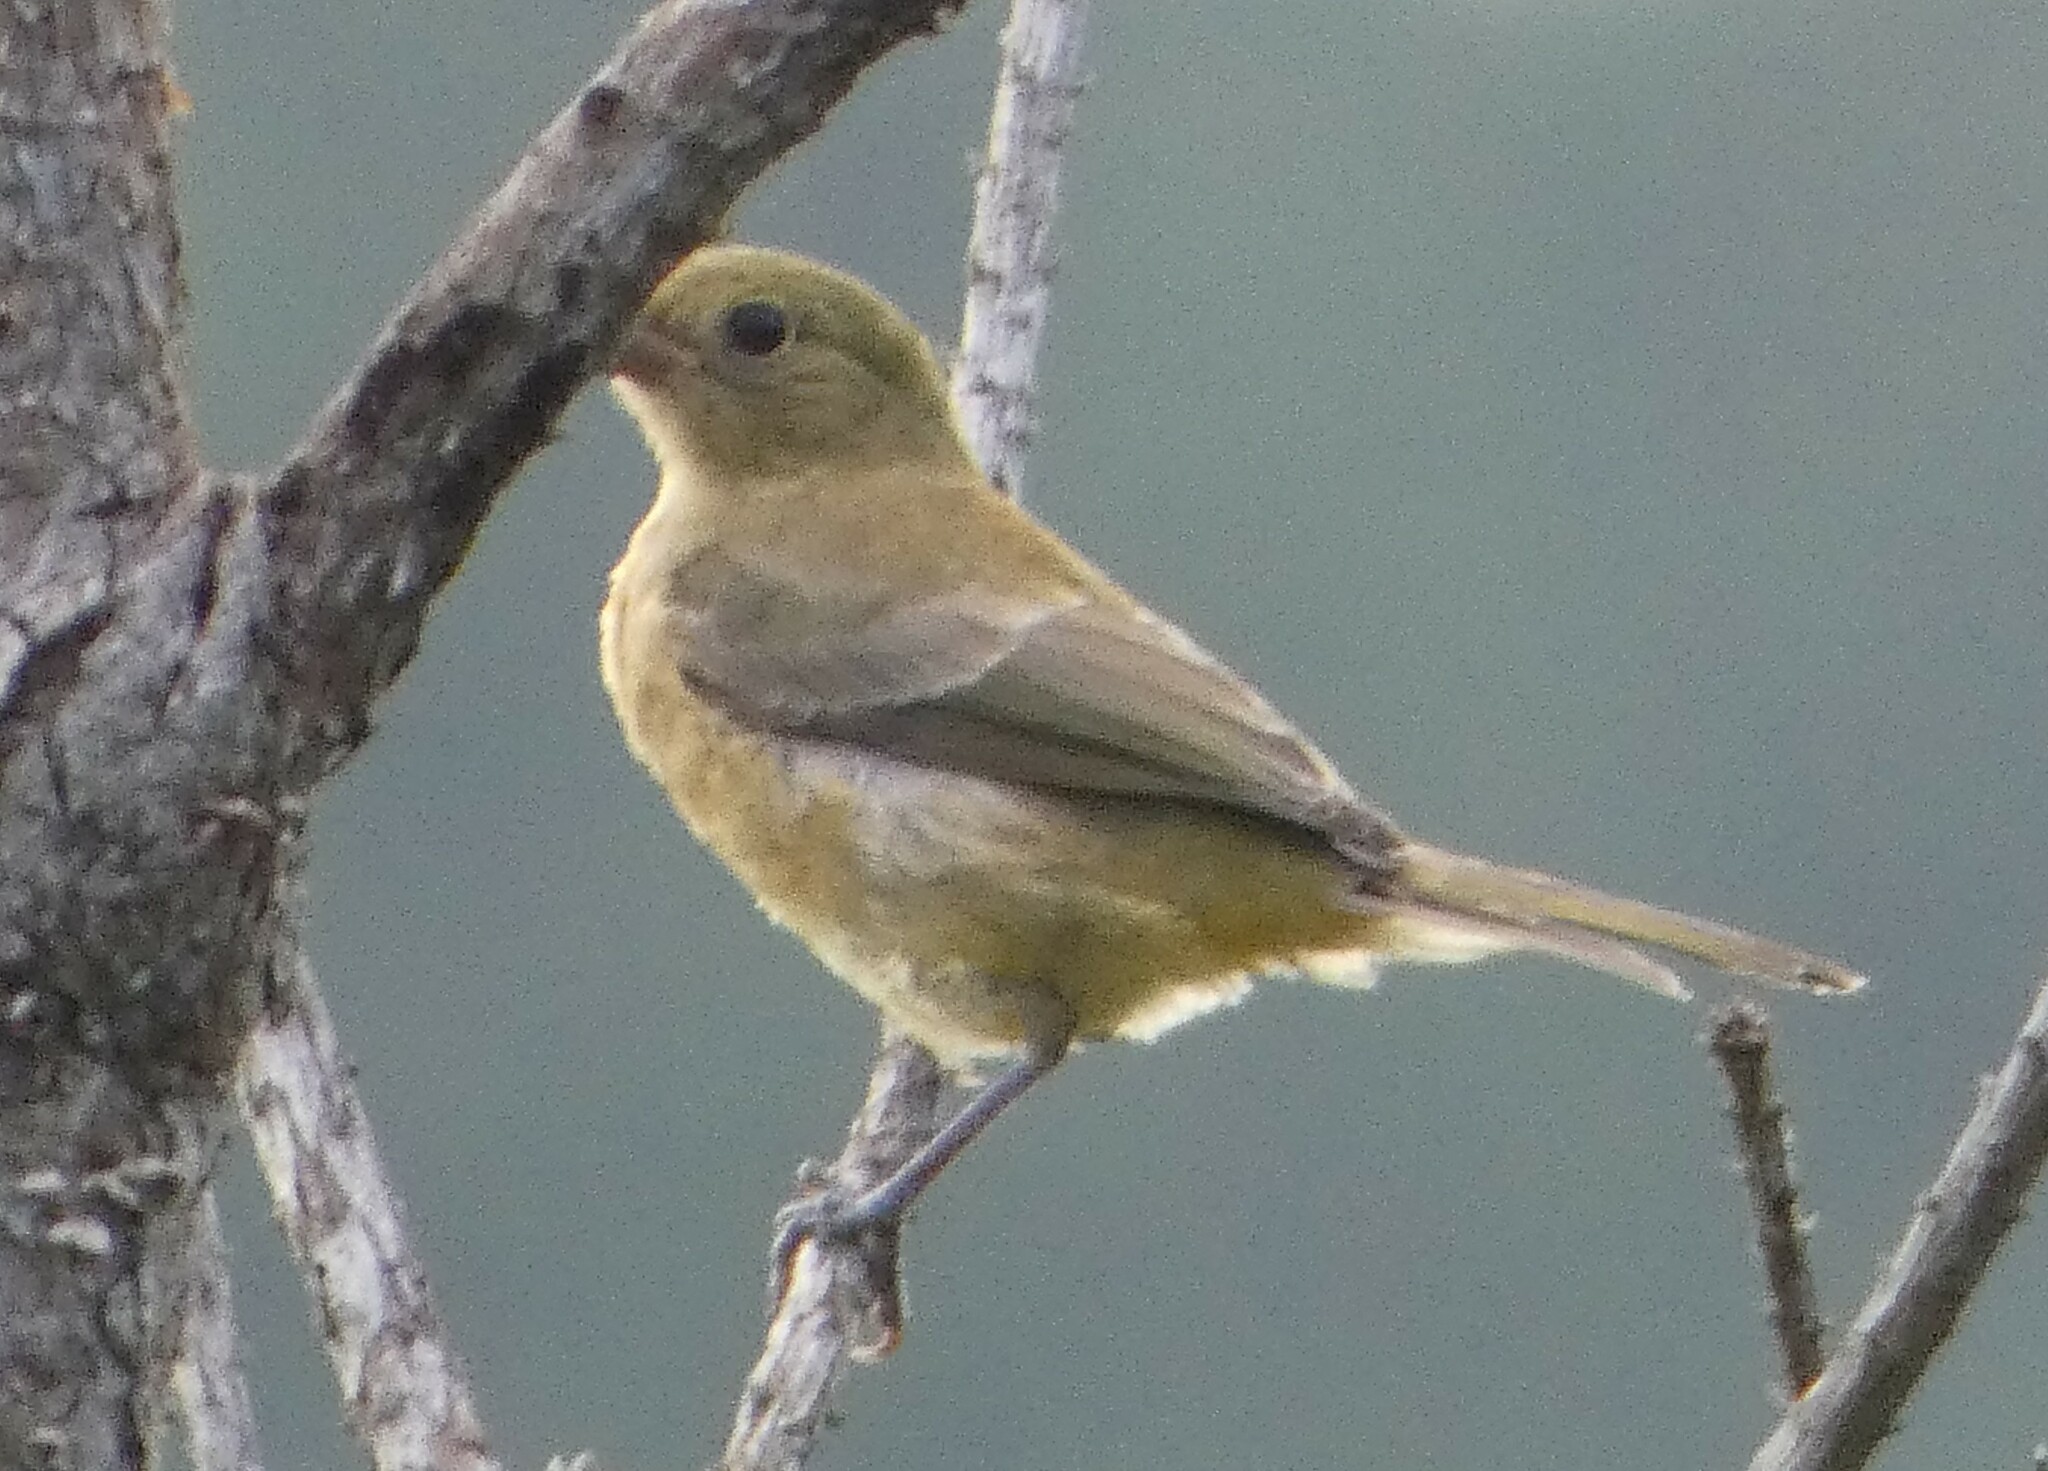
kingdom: Animalia
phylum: Chordata
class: Aves
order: Passeriformes
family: Cardinalidae
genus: Passerina
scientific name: Passerina ciris
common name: Painted bunting
